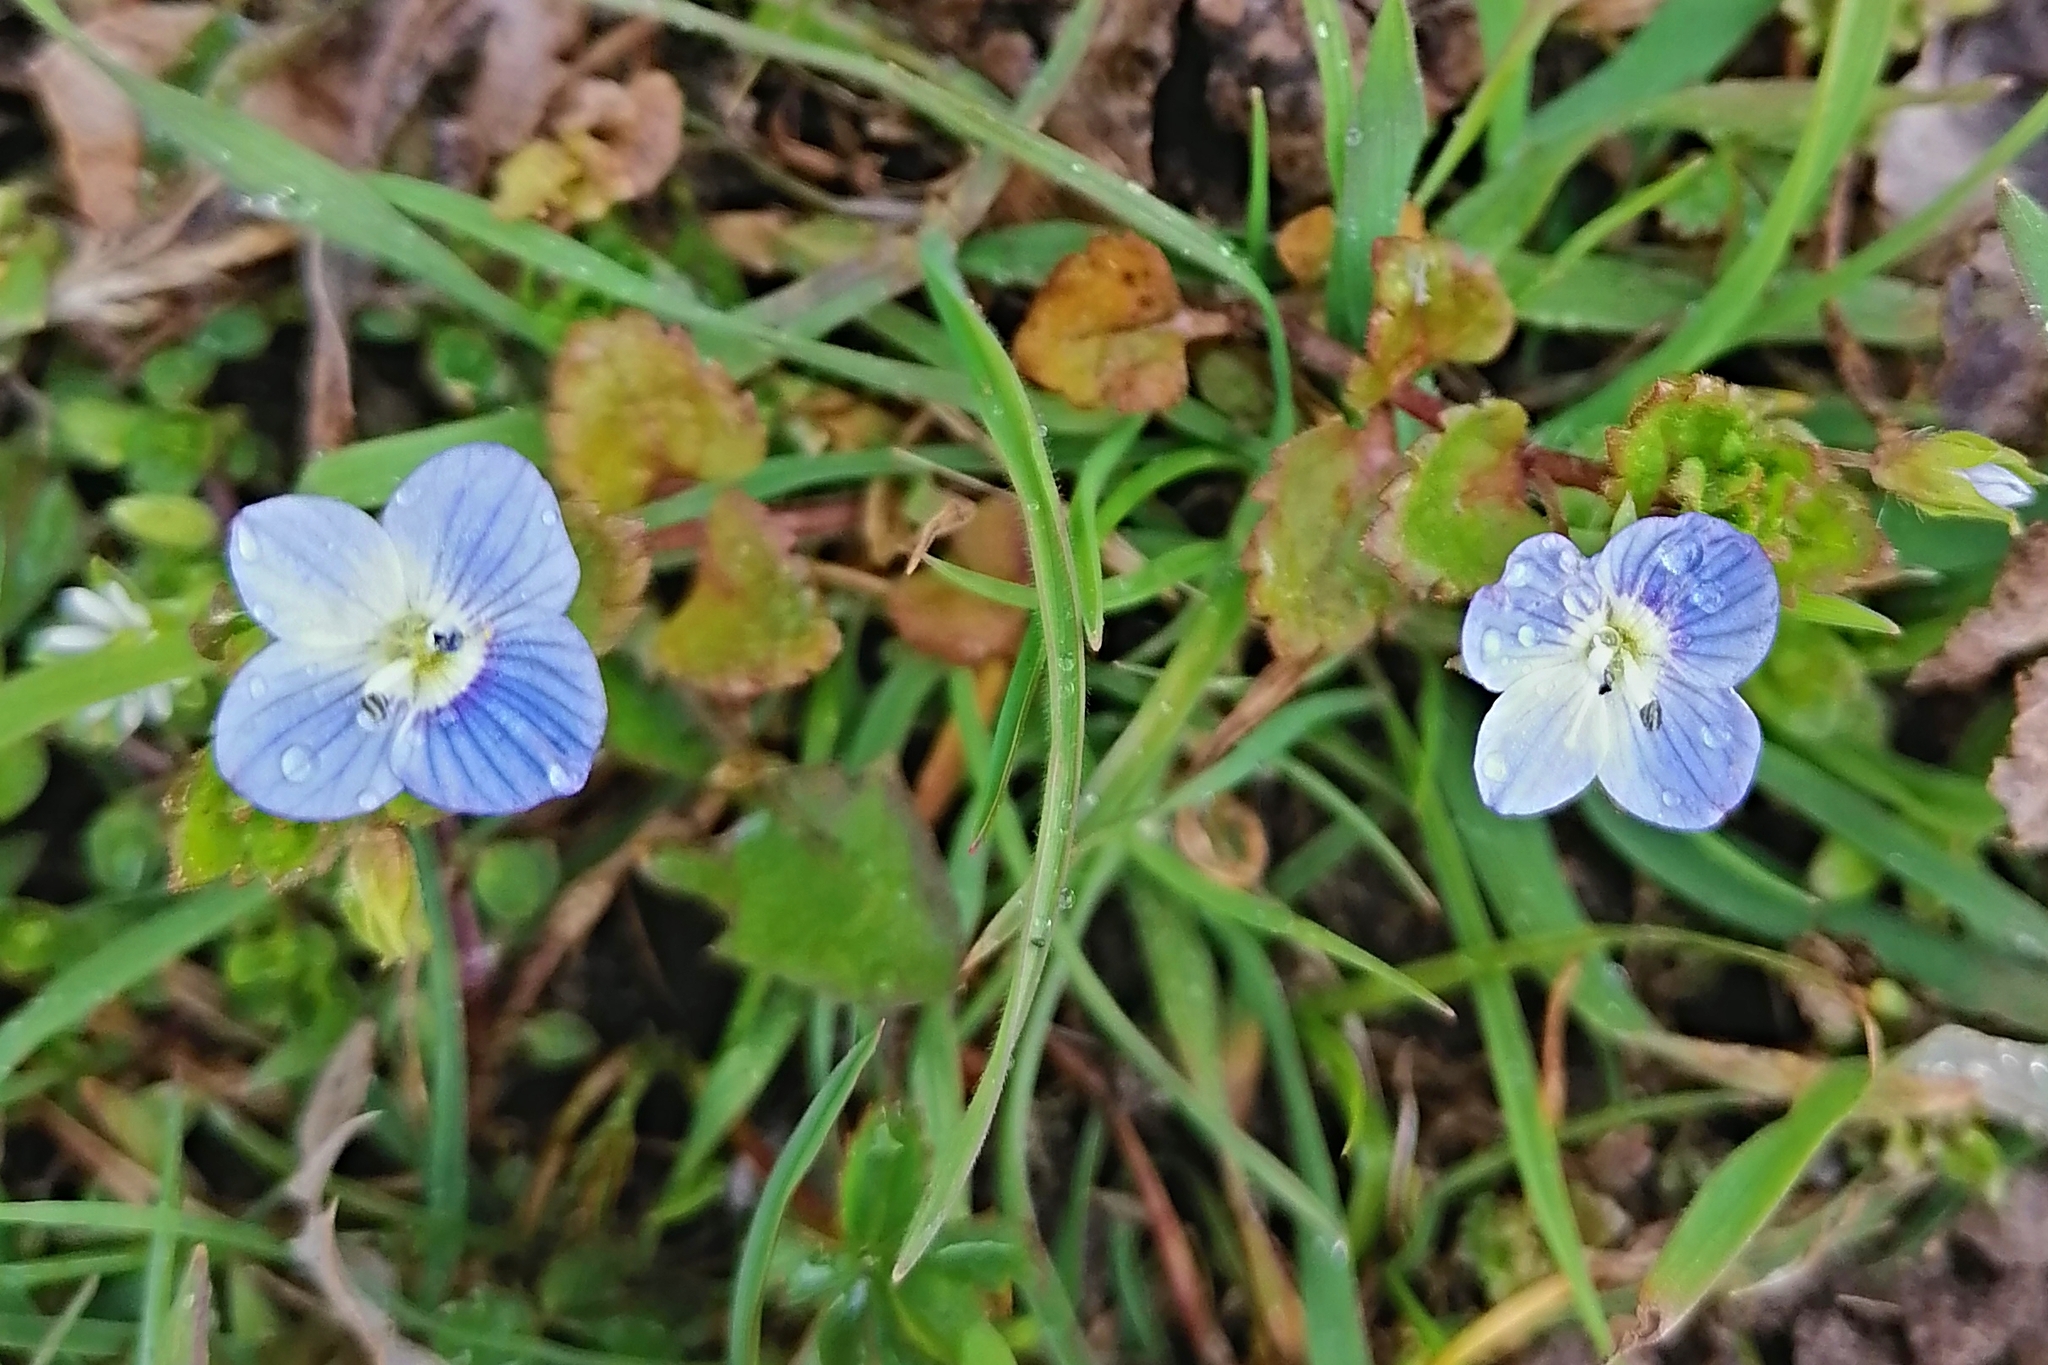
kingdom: Plantae
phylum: Tracheophyta
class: Magnoliopsida
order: Lamiales
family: Plantaginaceae
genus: Veronica
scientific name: Veronica persica
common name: Common field-speedwell
